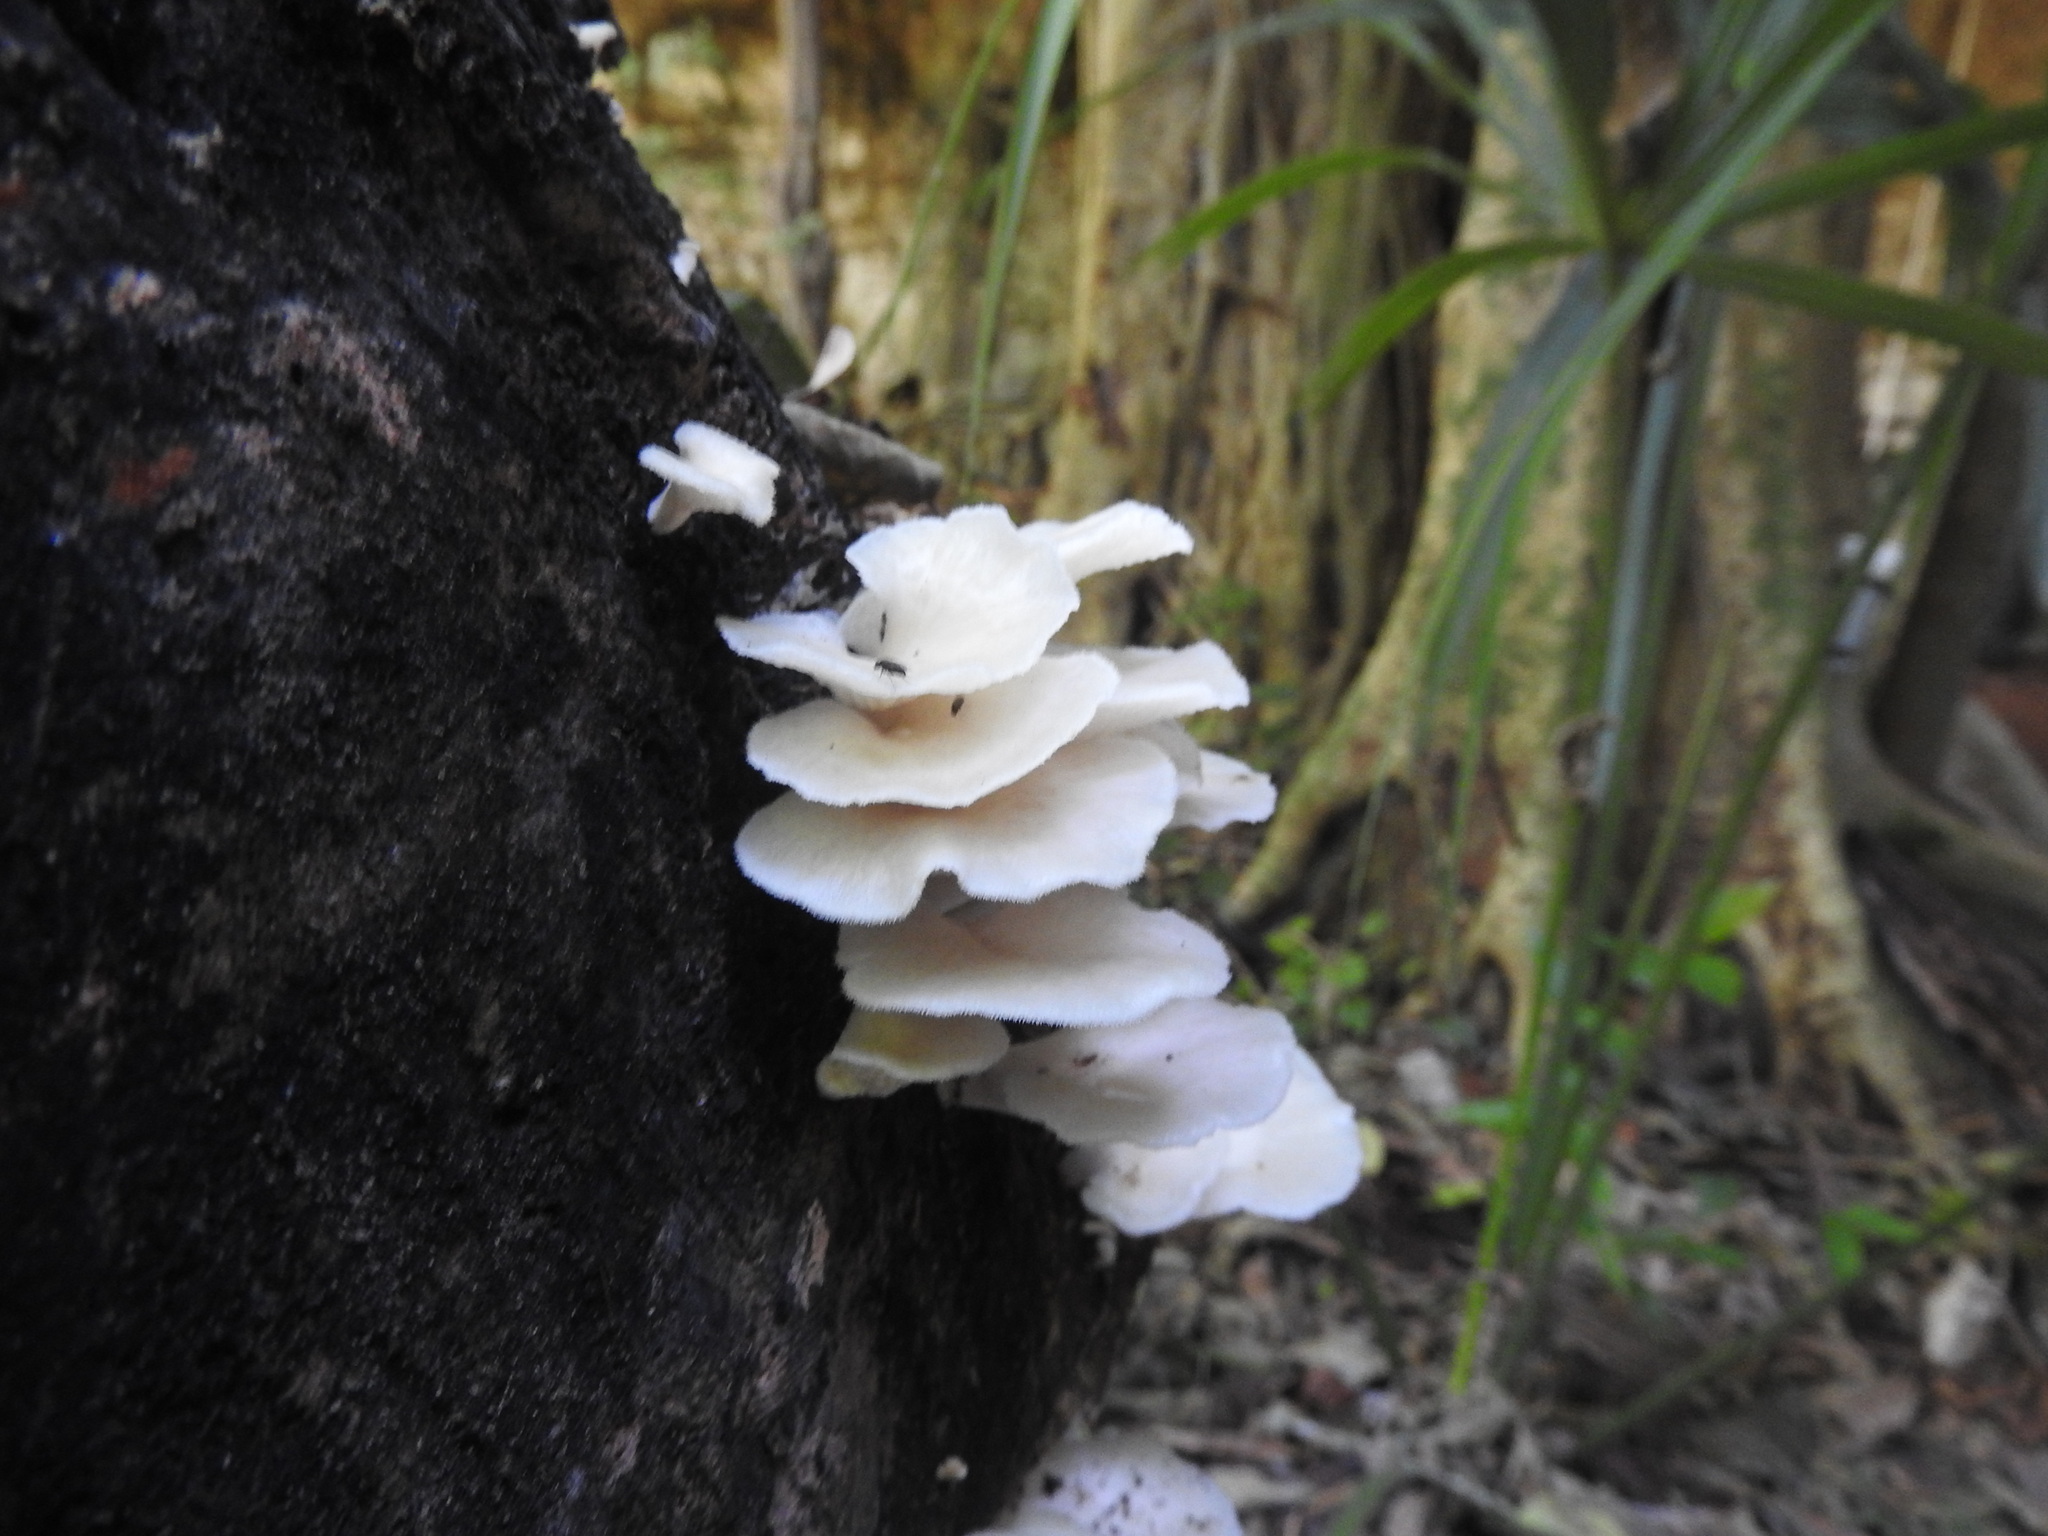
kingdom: Fungi
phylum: Basidiomycota
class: Agaricomycetes
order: Polyporales
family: Polyporaceae
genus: Favolus
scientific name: Favolus tenuiculus
